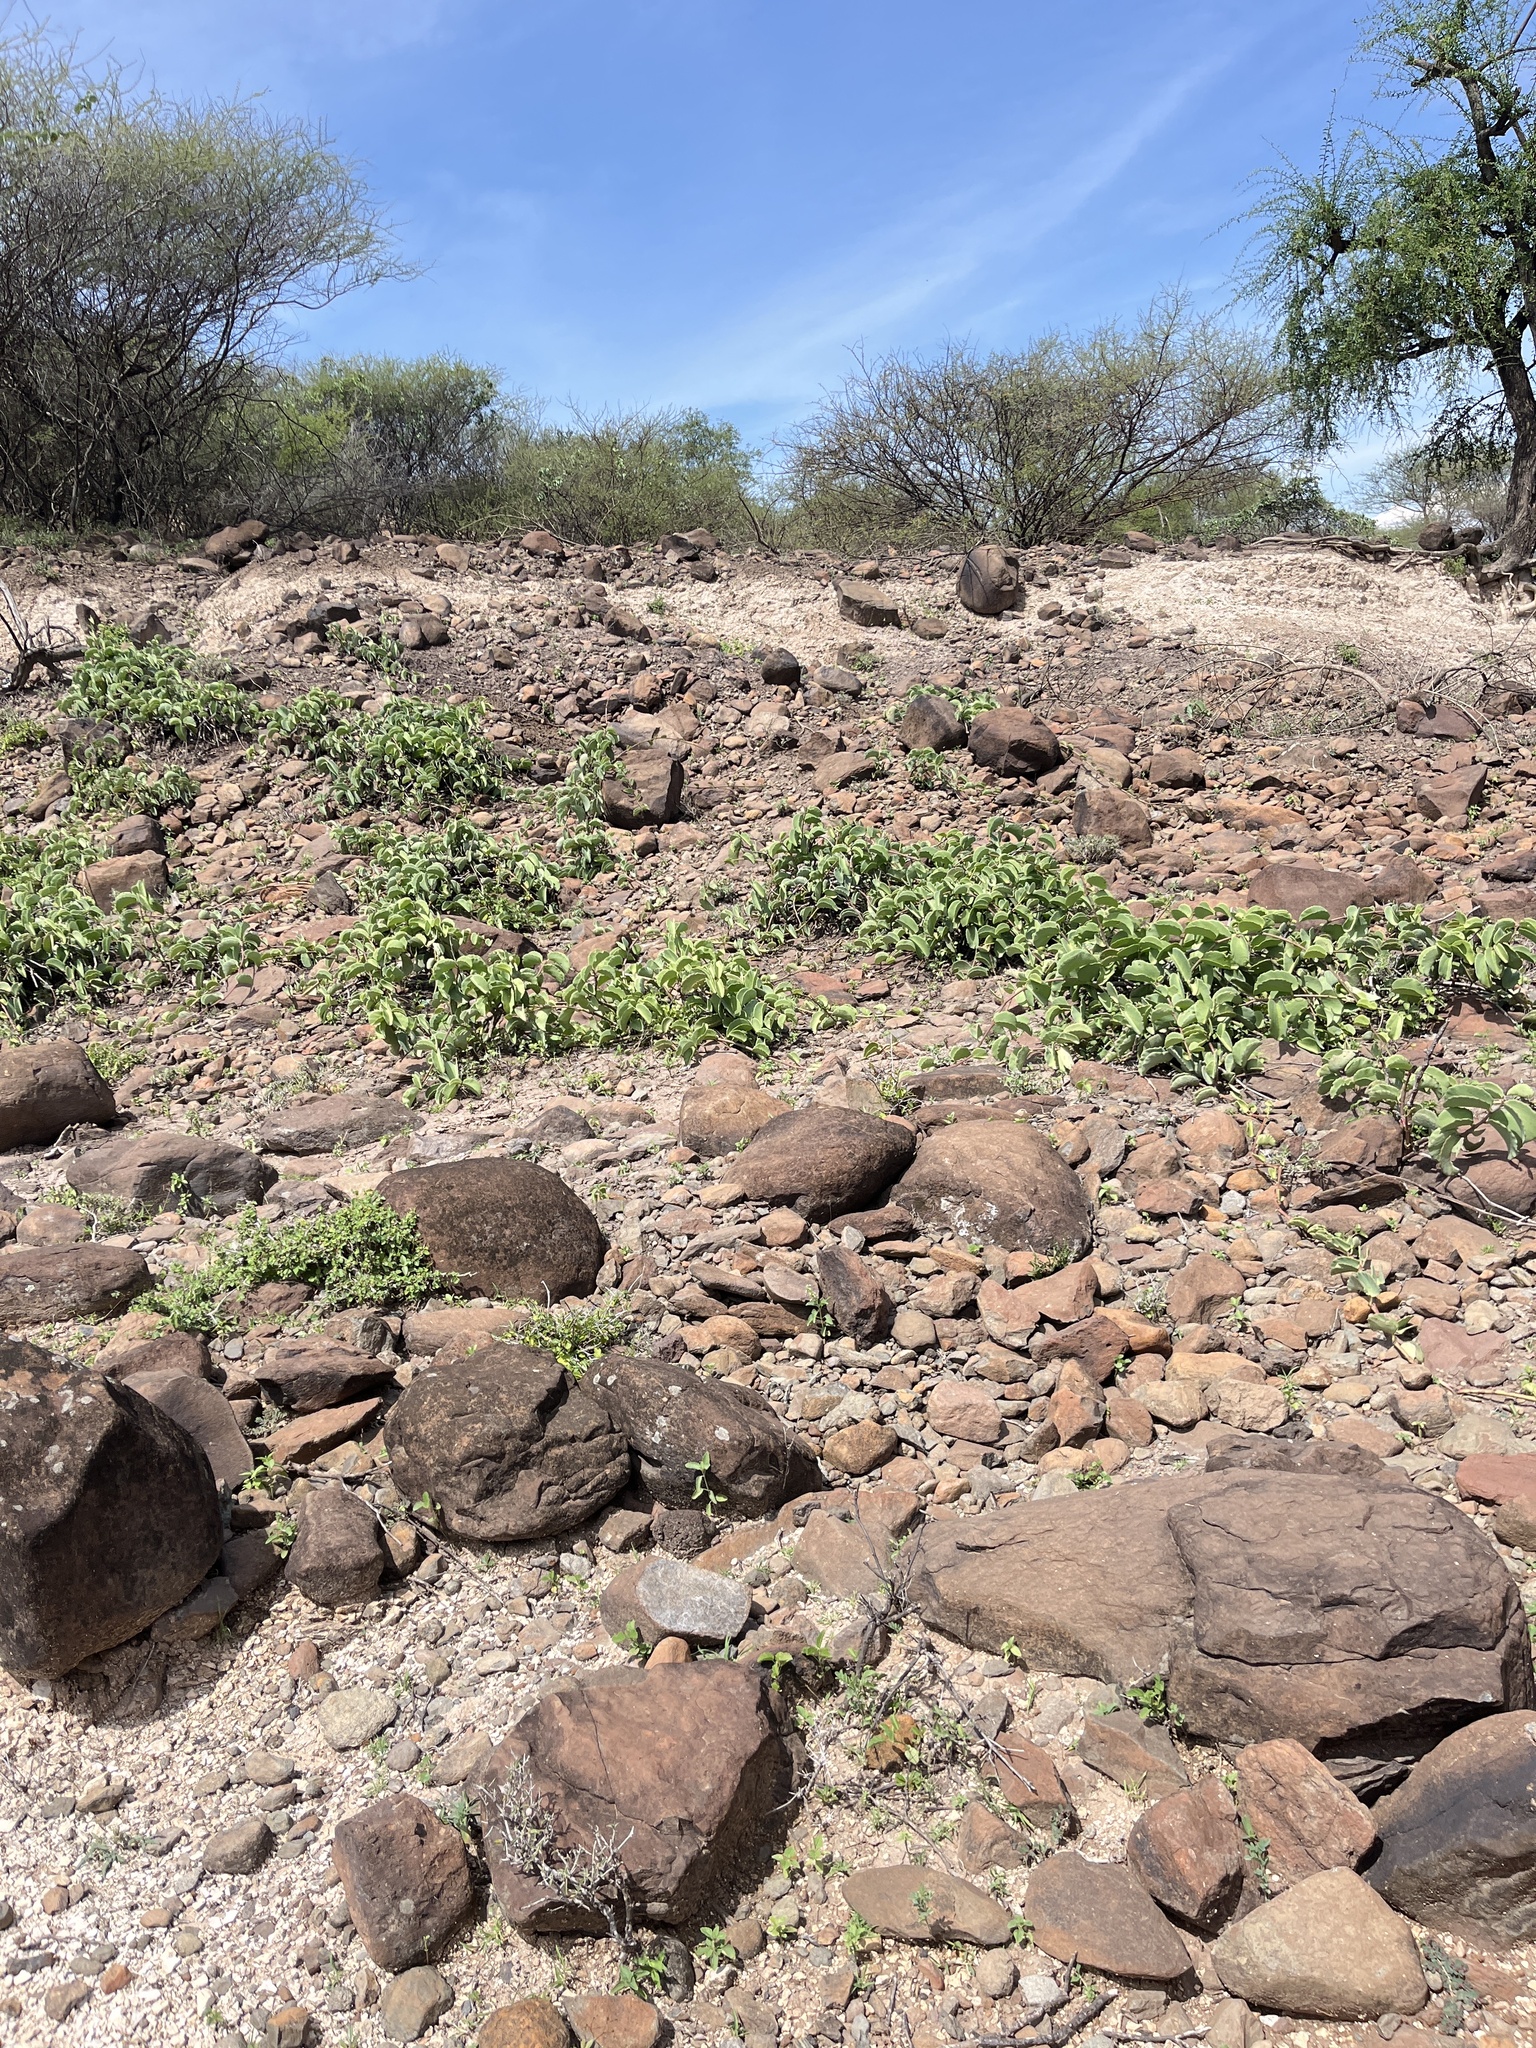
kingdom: Plantae
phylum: Tracheophyta
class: Magnoliopsida
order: Vitales
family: Vitaceae
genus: Cissus
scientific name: Cissus rotundifolia
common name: Arabian wax cissus
